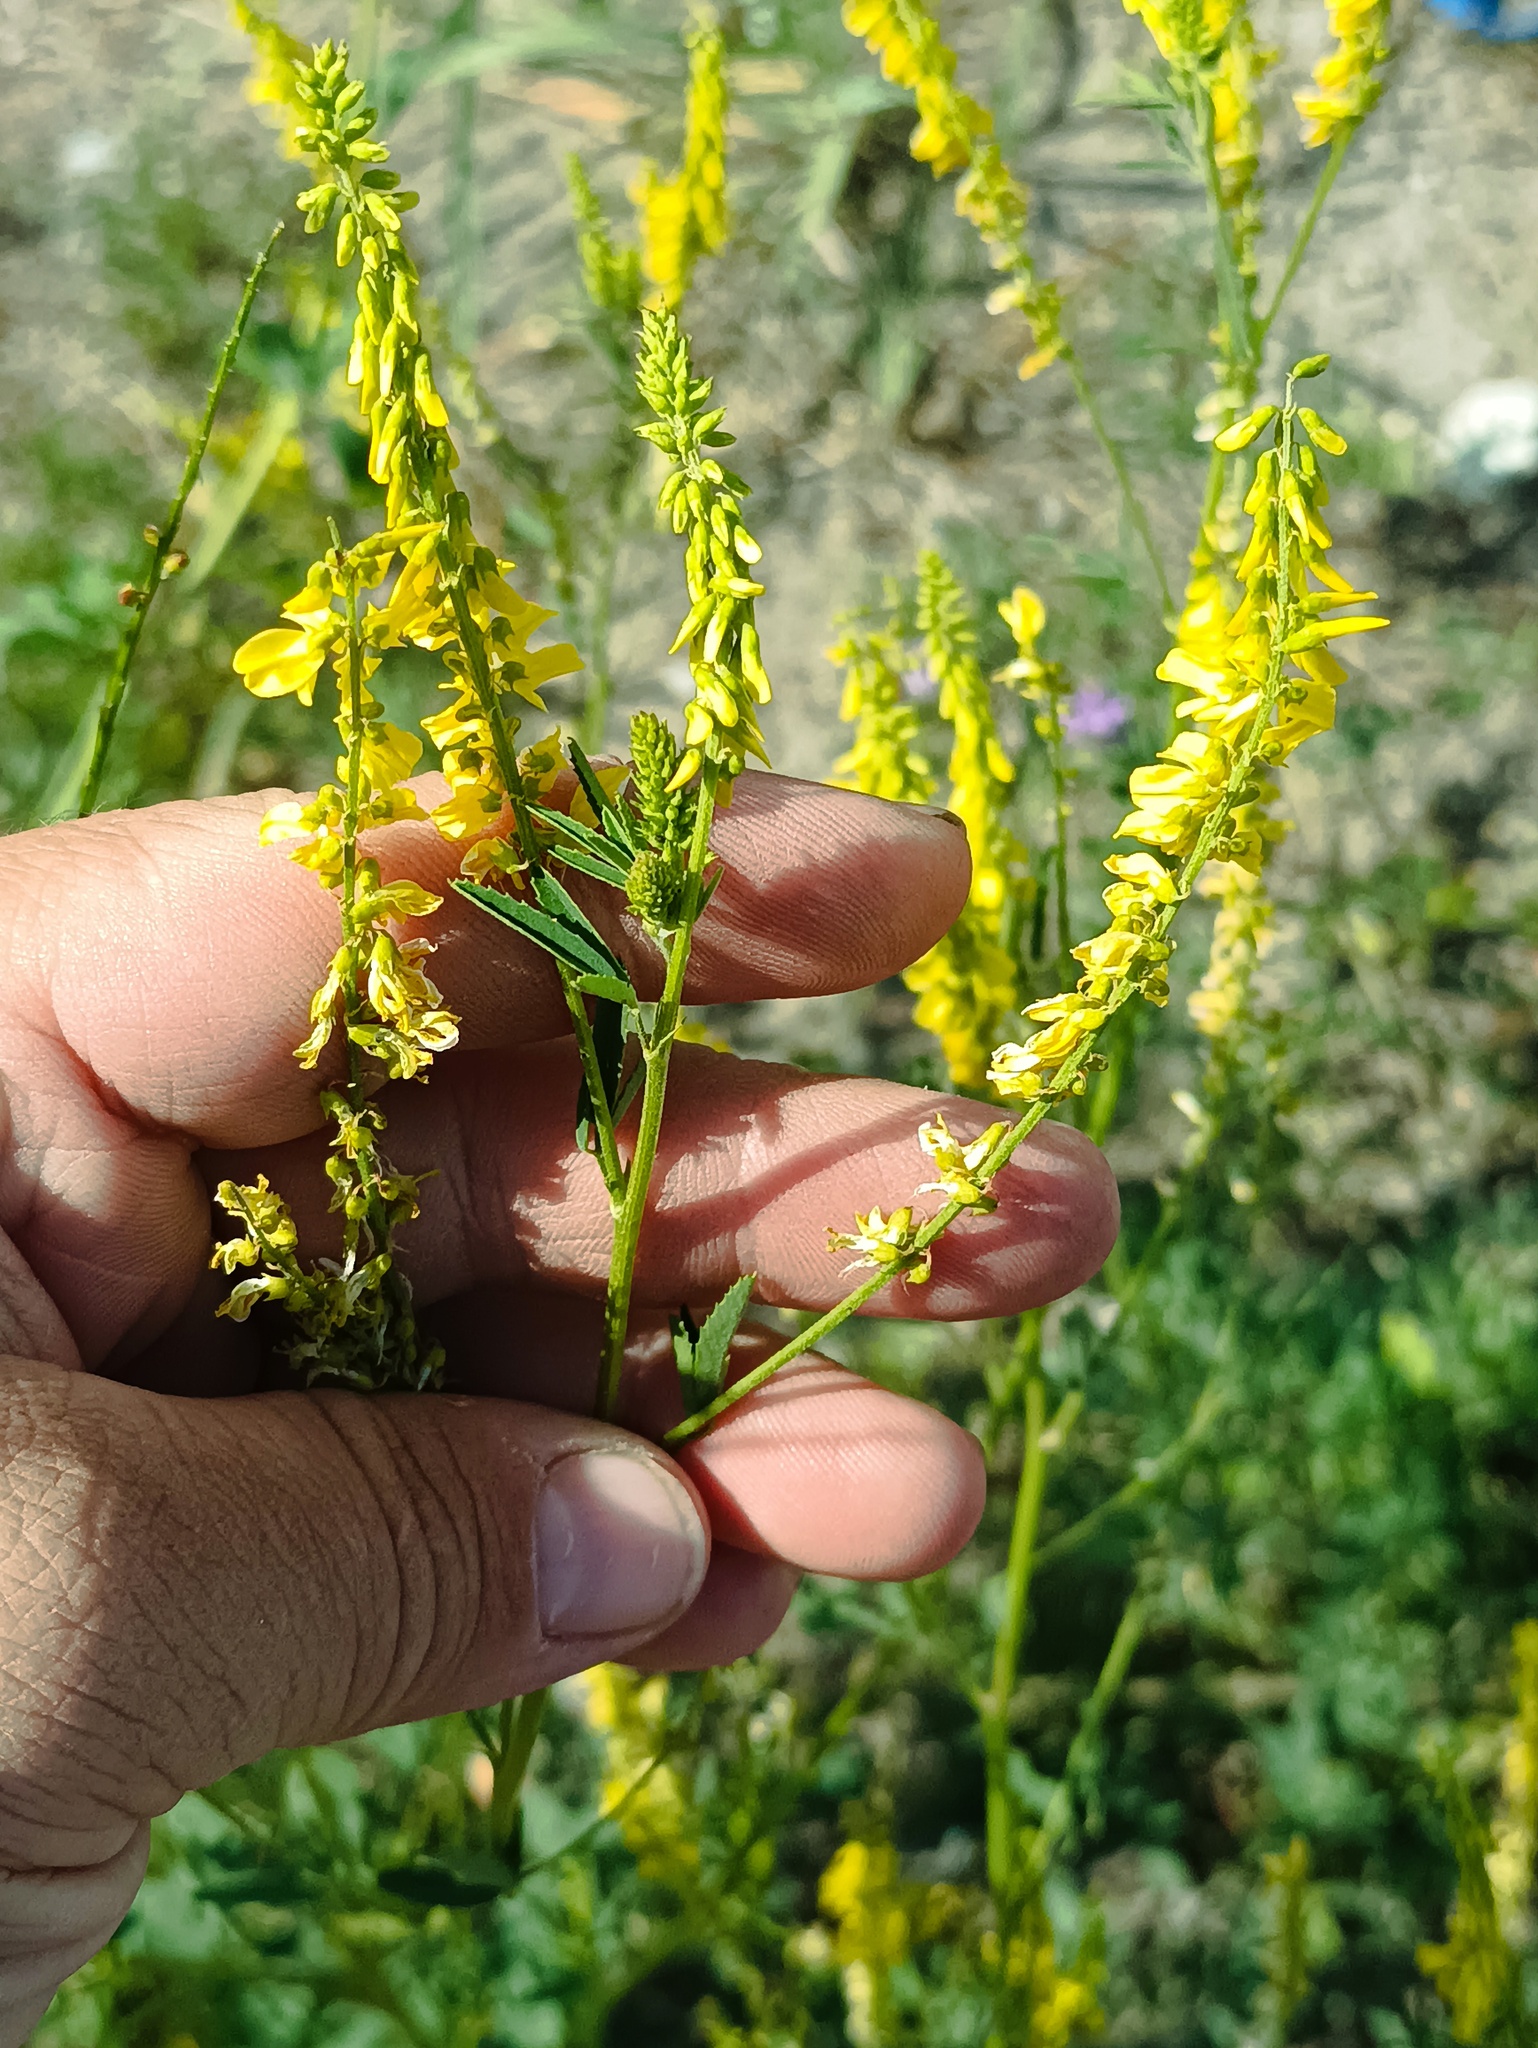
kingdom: Plantae
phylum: Tracheophyta
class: Magnoliopsida
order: Fabales
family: Fabaceae
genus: Melilotus
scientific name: Melilotus officinalis
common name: Sweetclover
